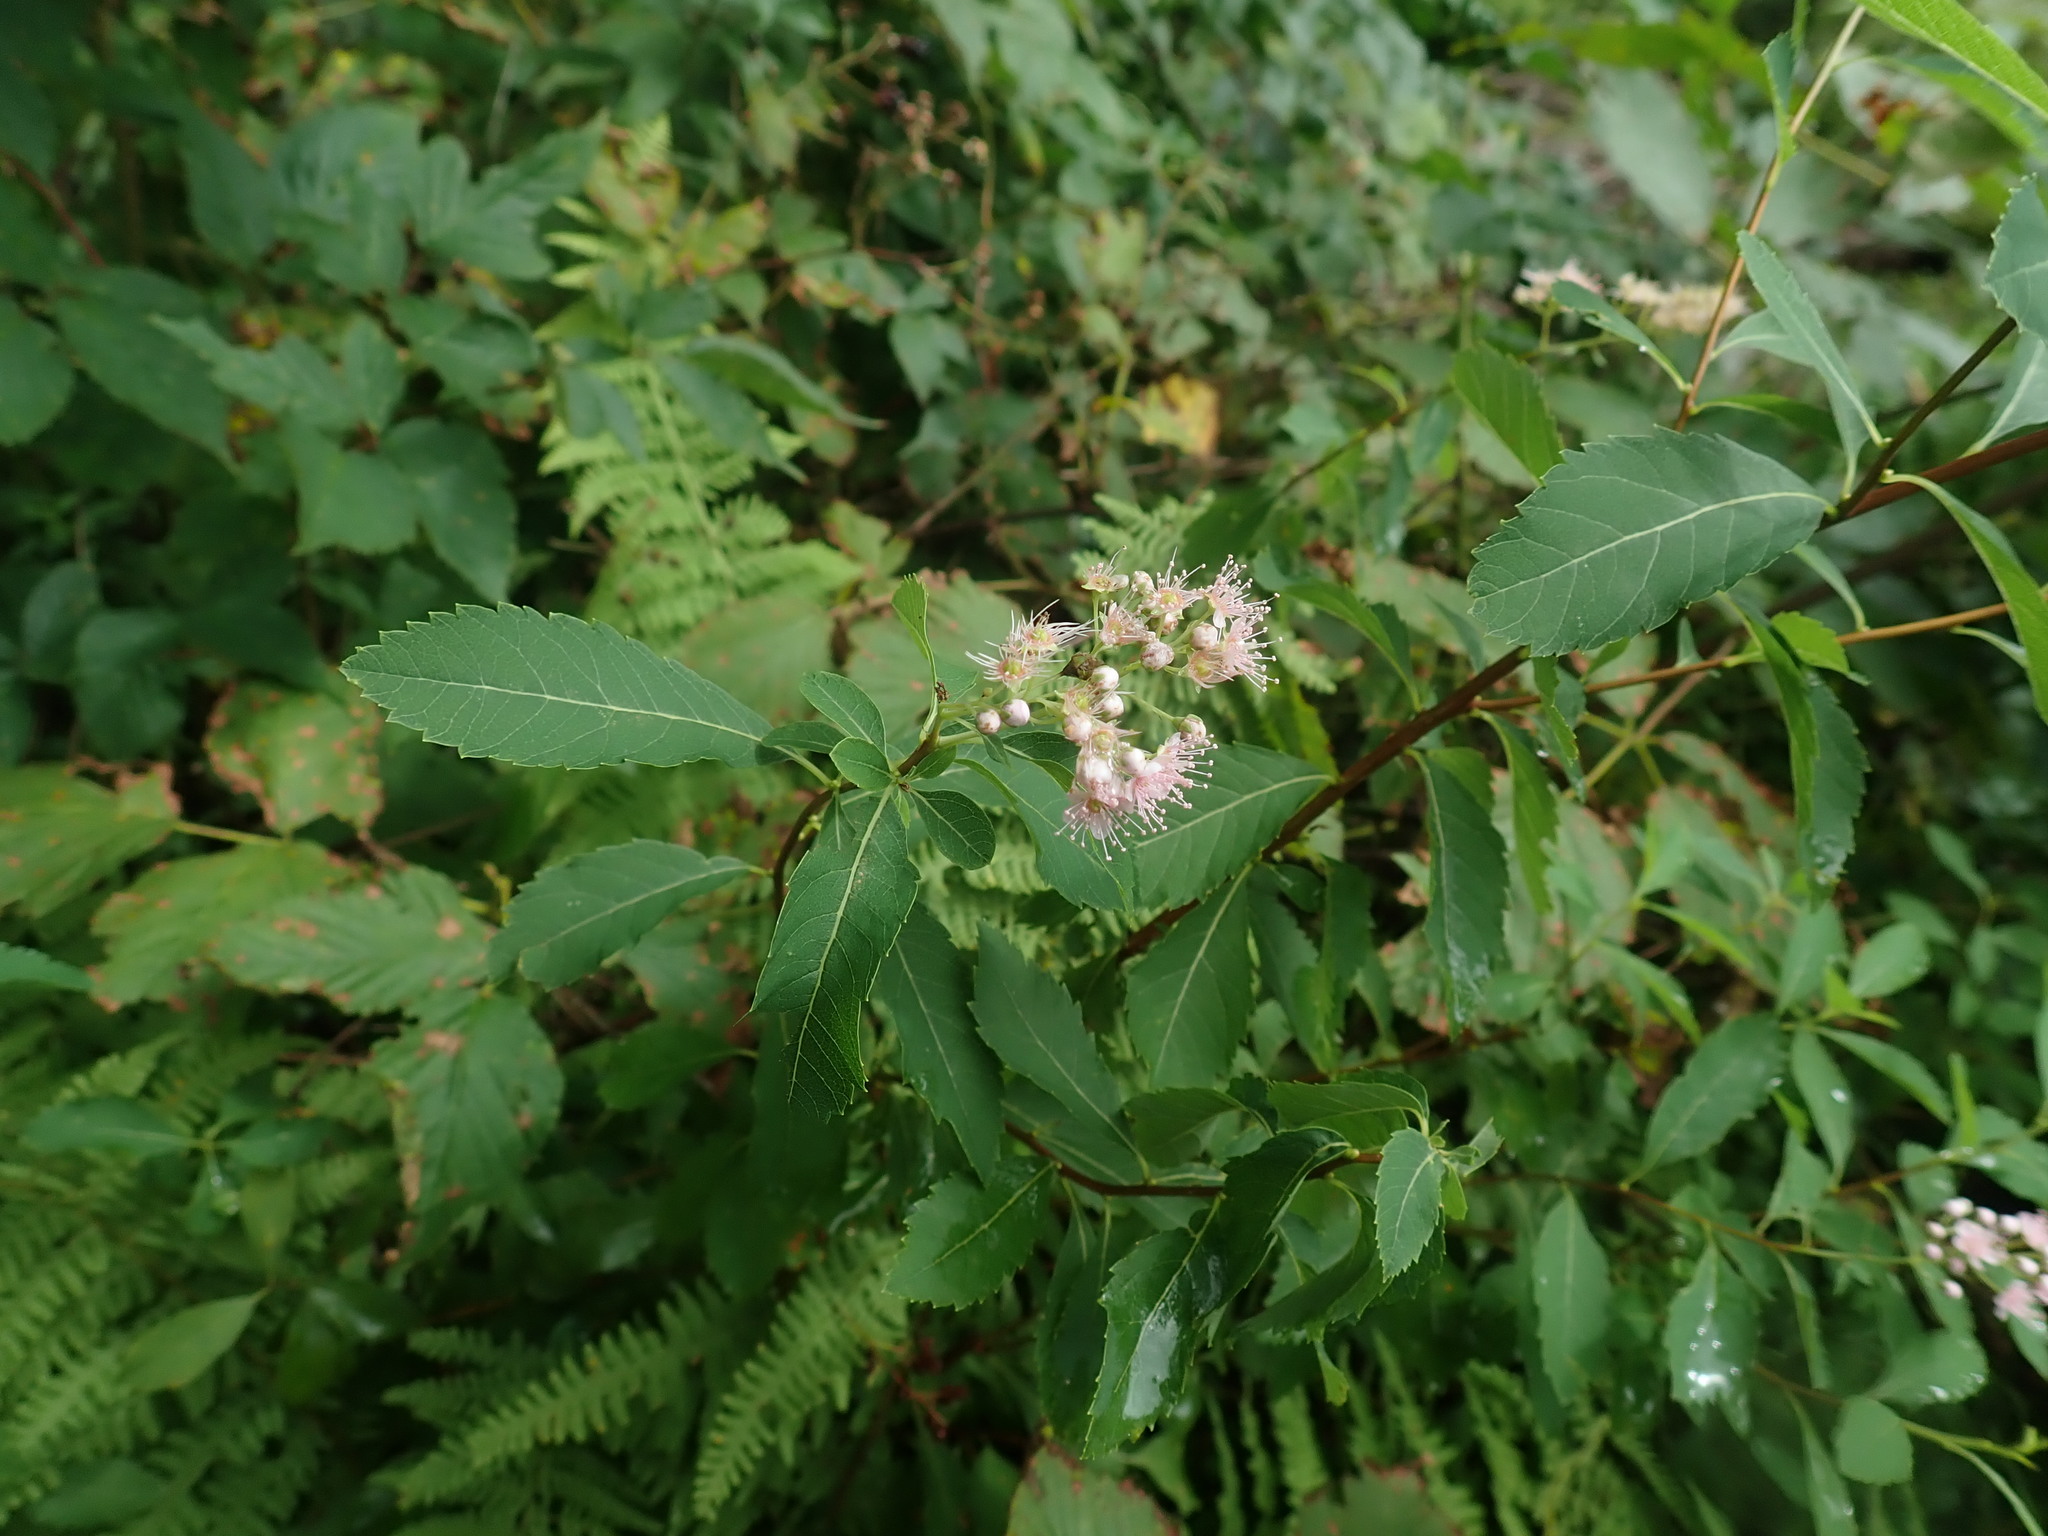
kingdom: Plantae
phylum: Tracheophyta
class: Magnoliopsida
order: Rosales
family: Rosaceae
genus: Spiraea
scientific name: Spiraea alba
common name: Pale bridewort
